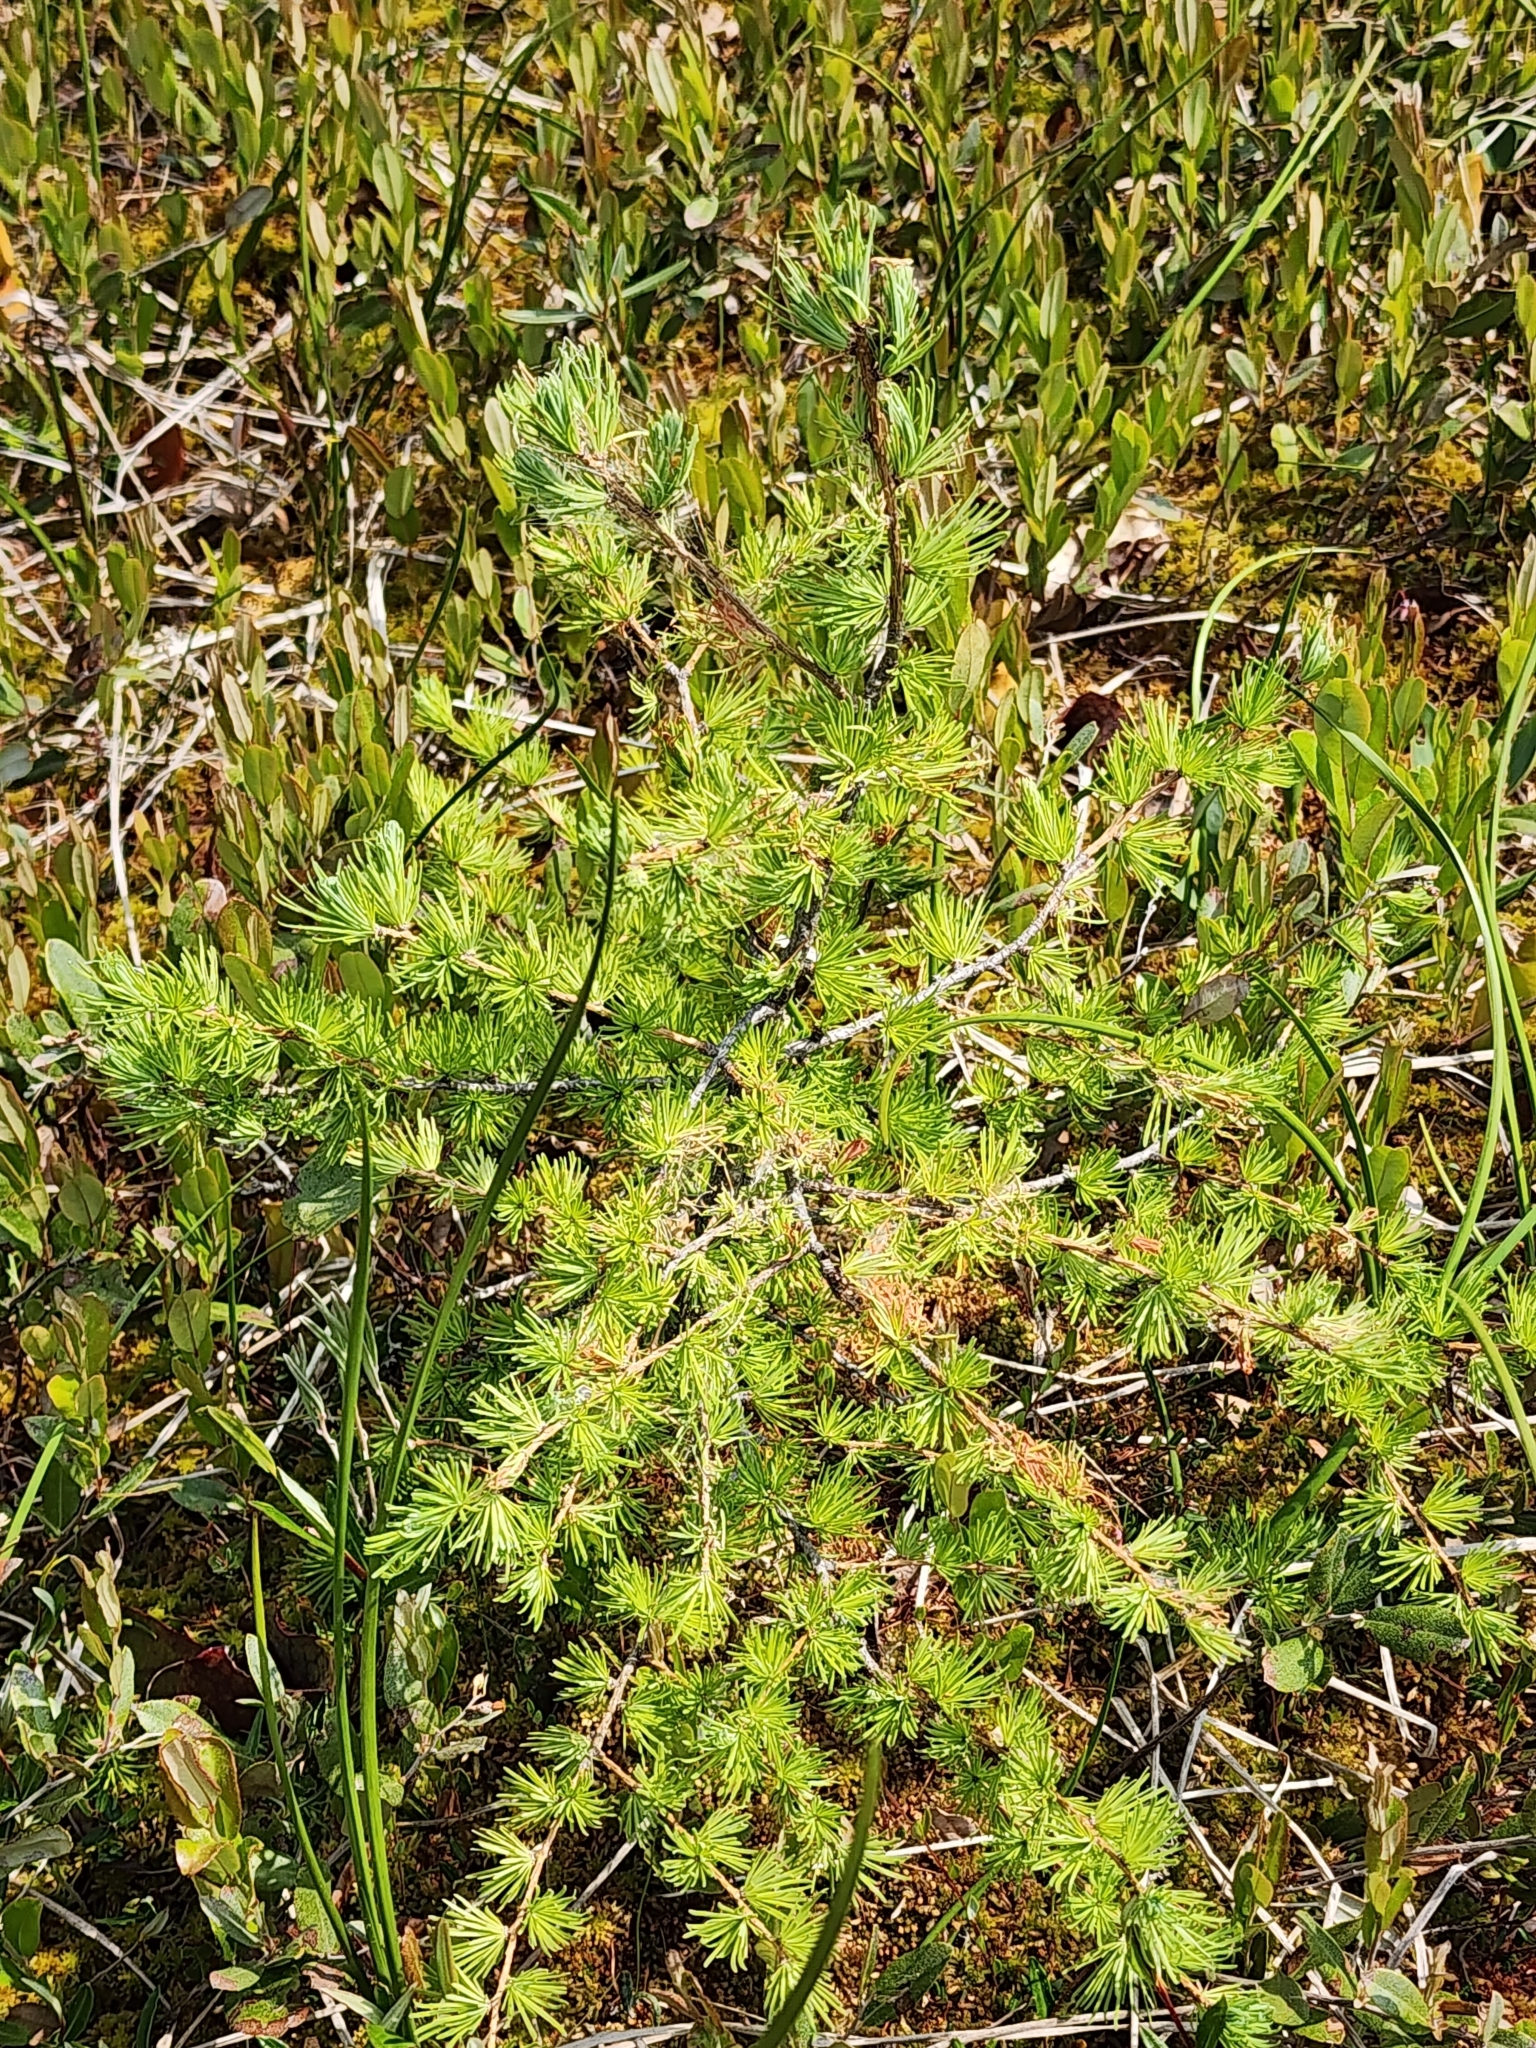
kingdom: Plantae
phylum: Tracheophyta
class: Pinopsida
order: Pinales
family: Pinaceae
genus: Larix
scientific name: Larix laricina
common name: American larch
